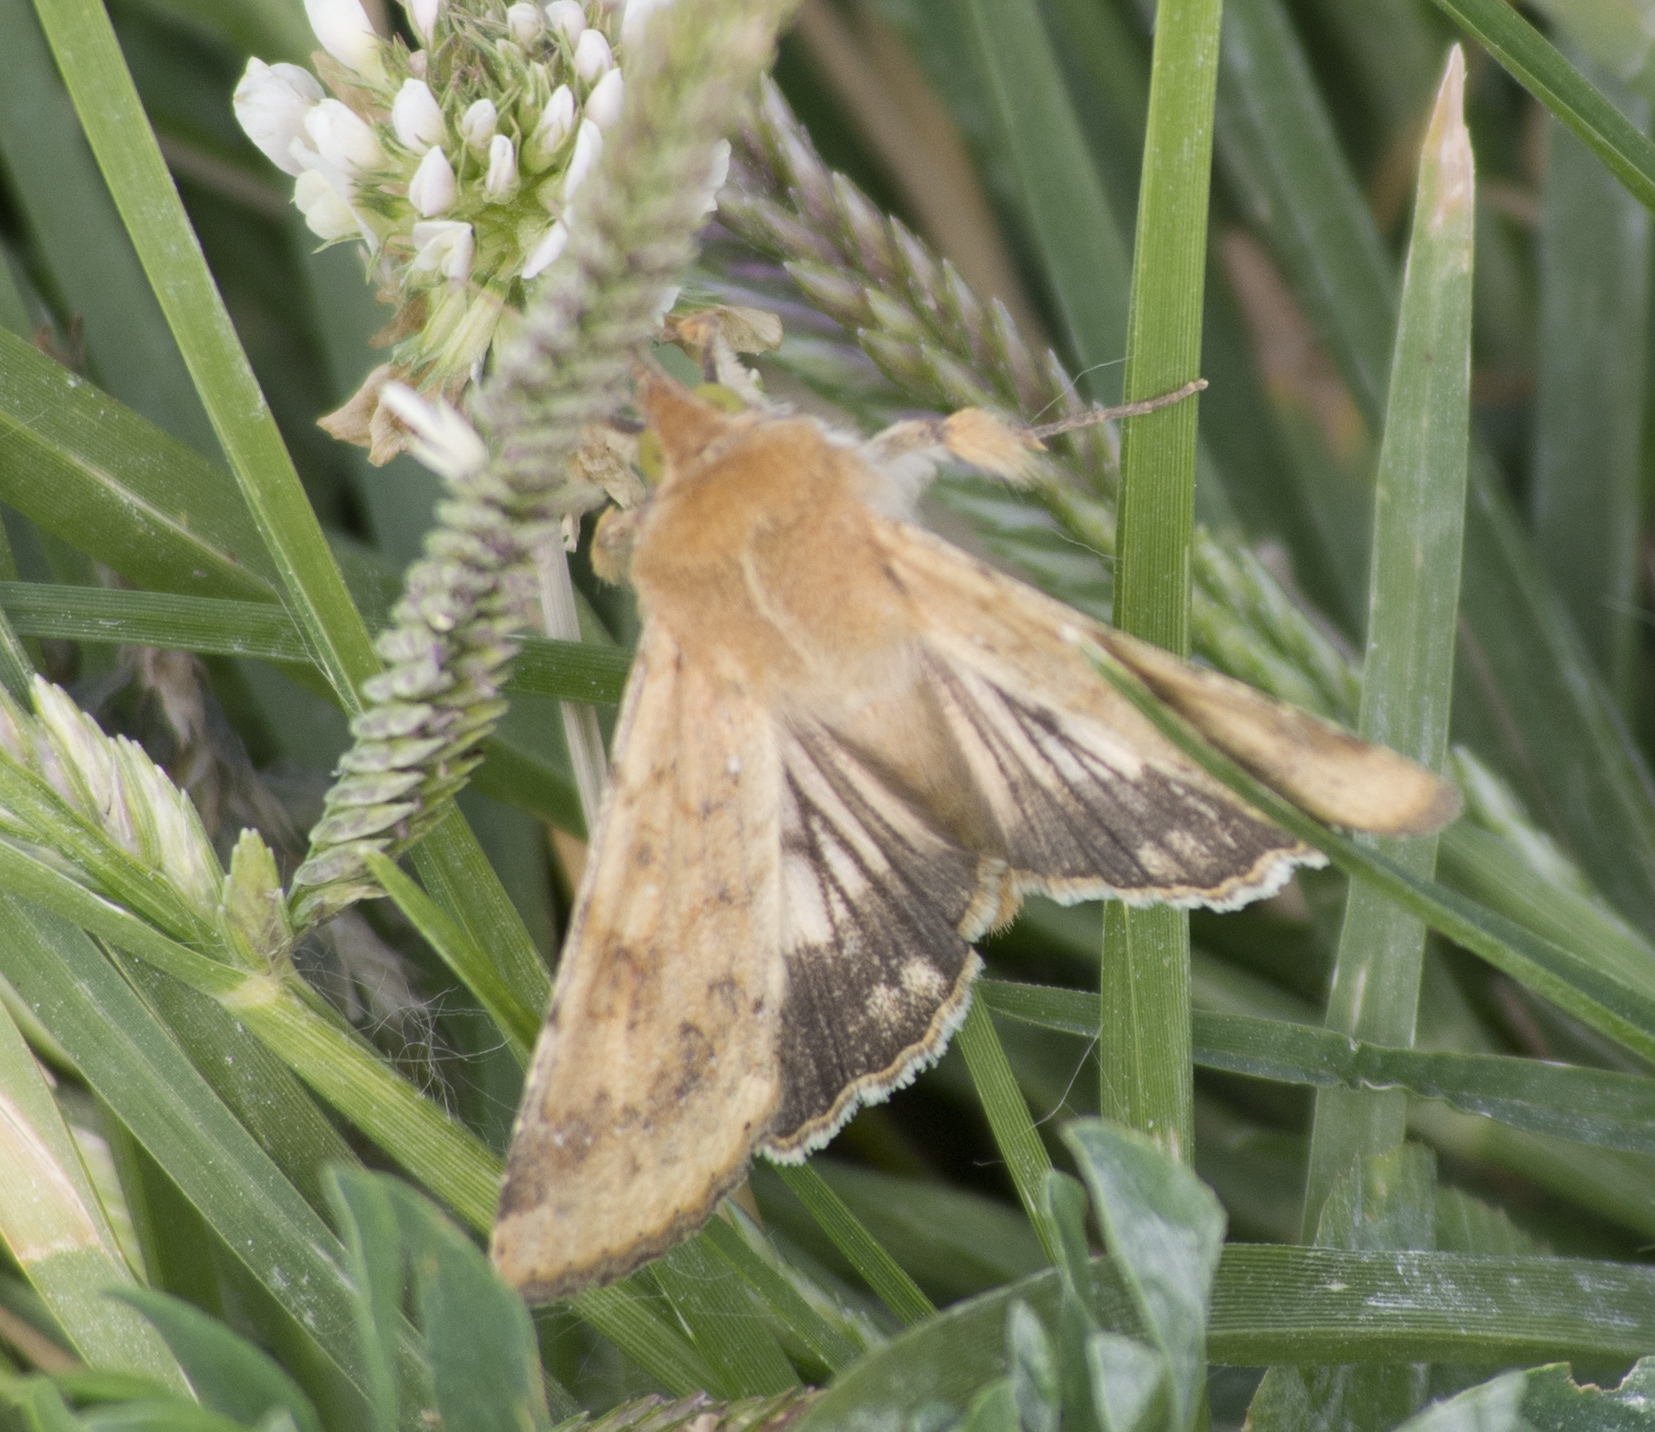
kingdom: Animalia
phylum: Arthropoda
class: Insecta
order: Lepidoptera
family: Noctuidae
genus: Helicoverpa
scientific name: Helicoverpa zea
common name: Bollworm
